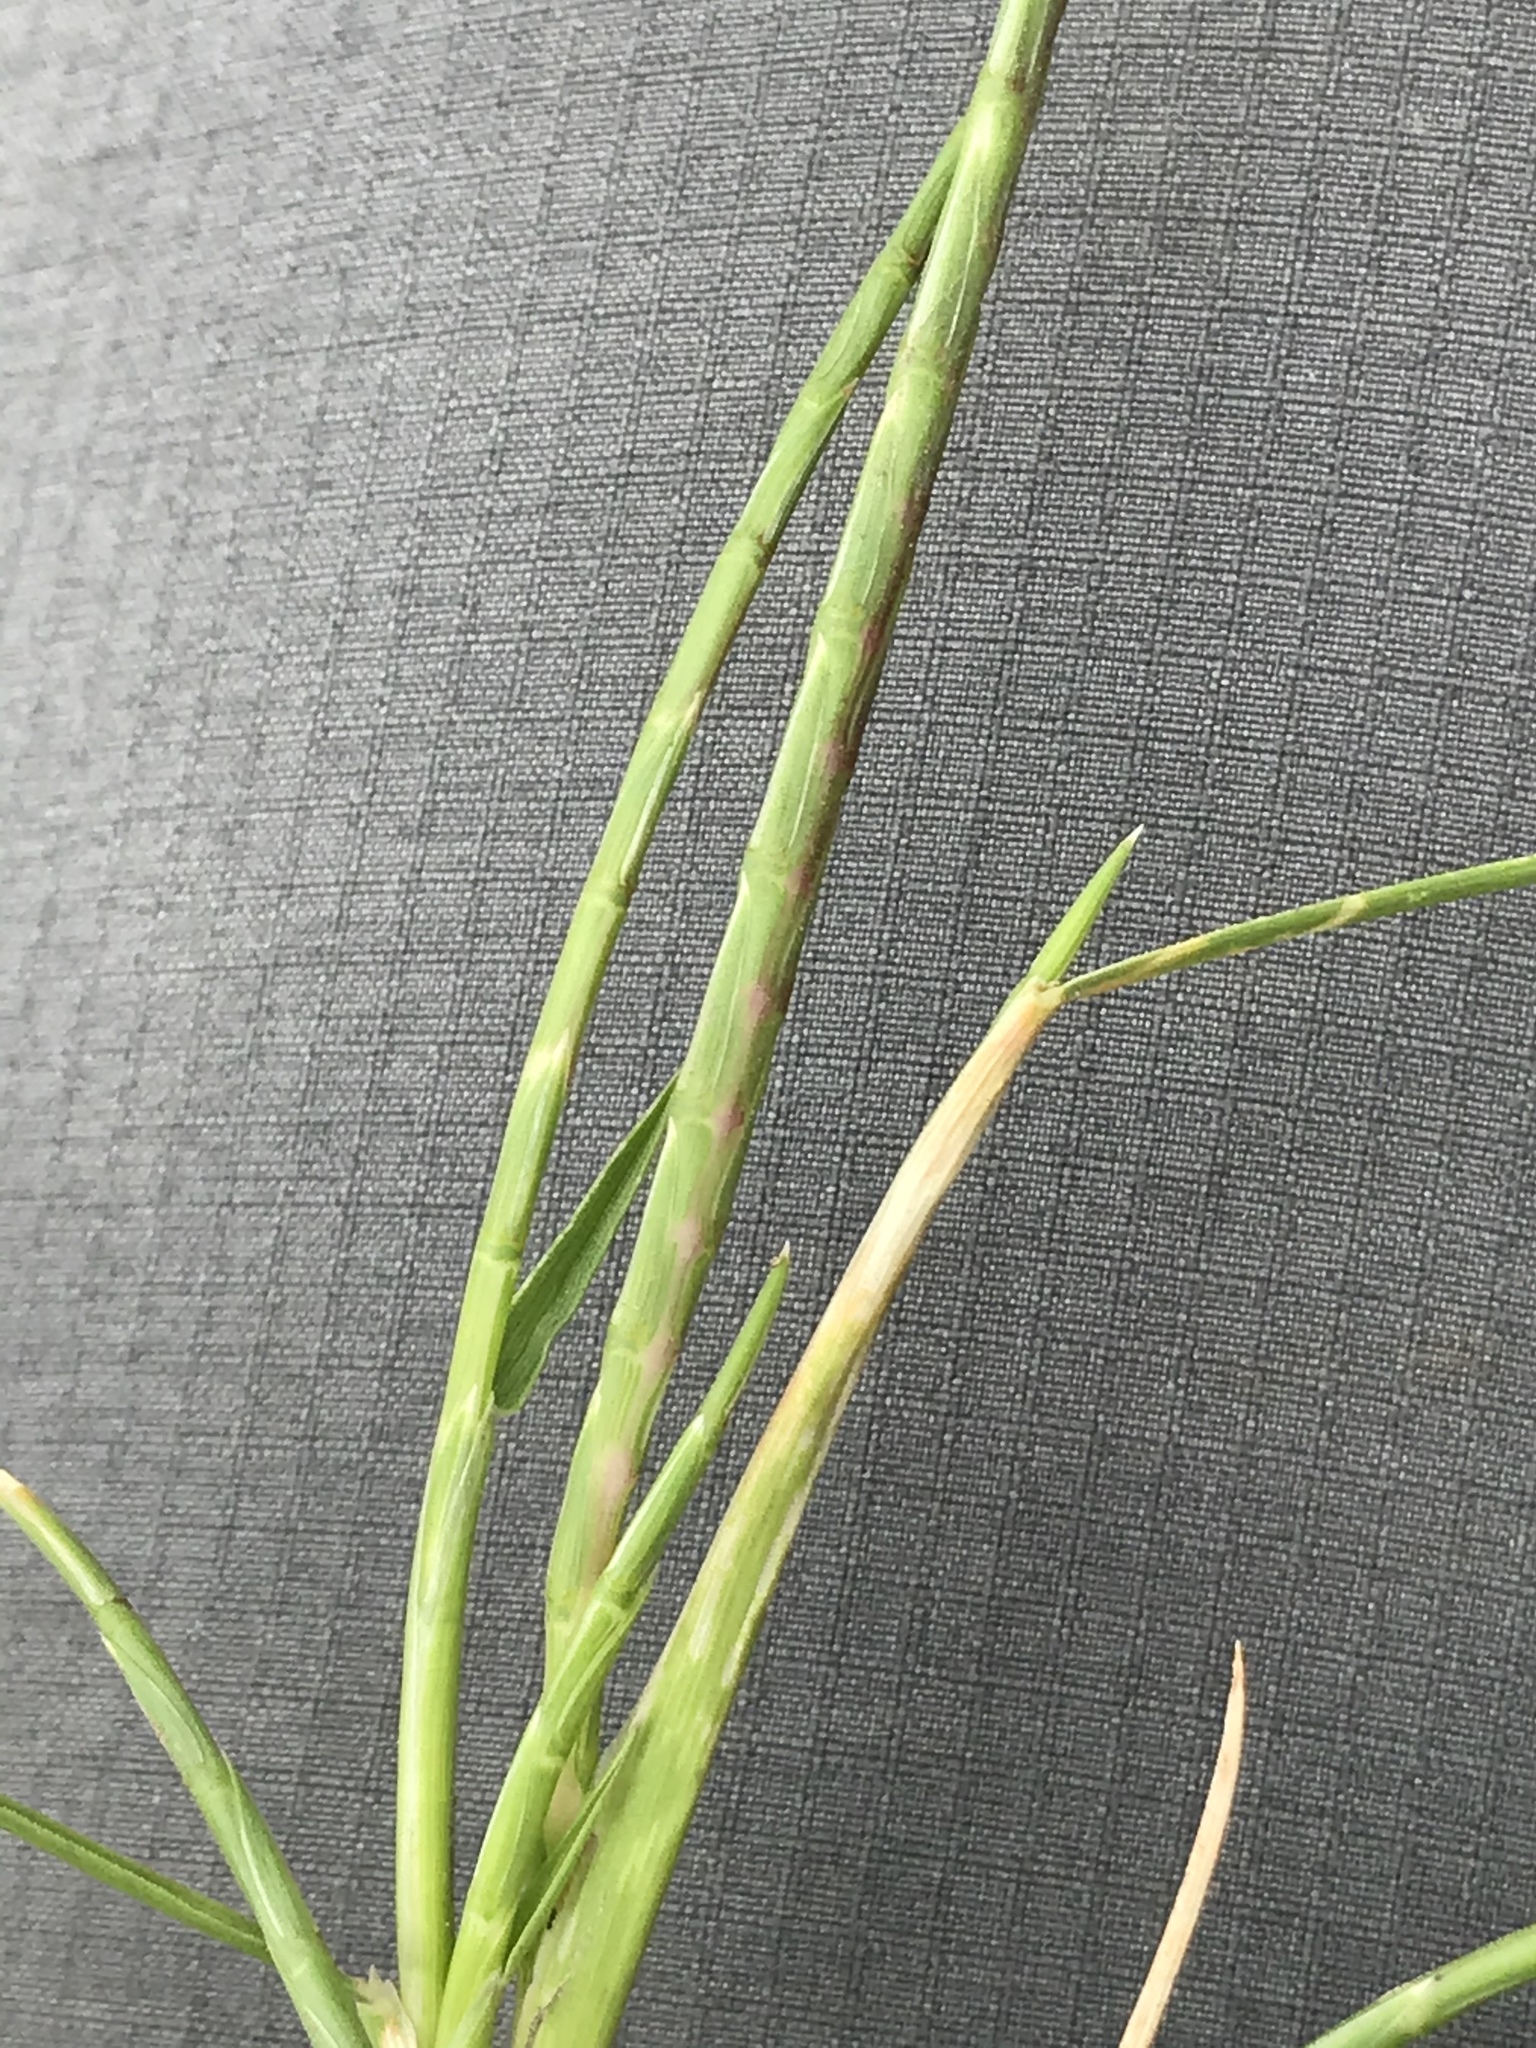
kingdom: Plantae
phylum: Tracheophyta
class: Liliopsida
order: Poales
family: Poaceae
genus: Parapholis
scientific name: Parapholis incurva
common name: Curved sicklegrass
